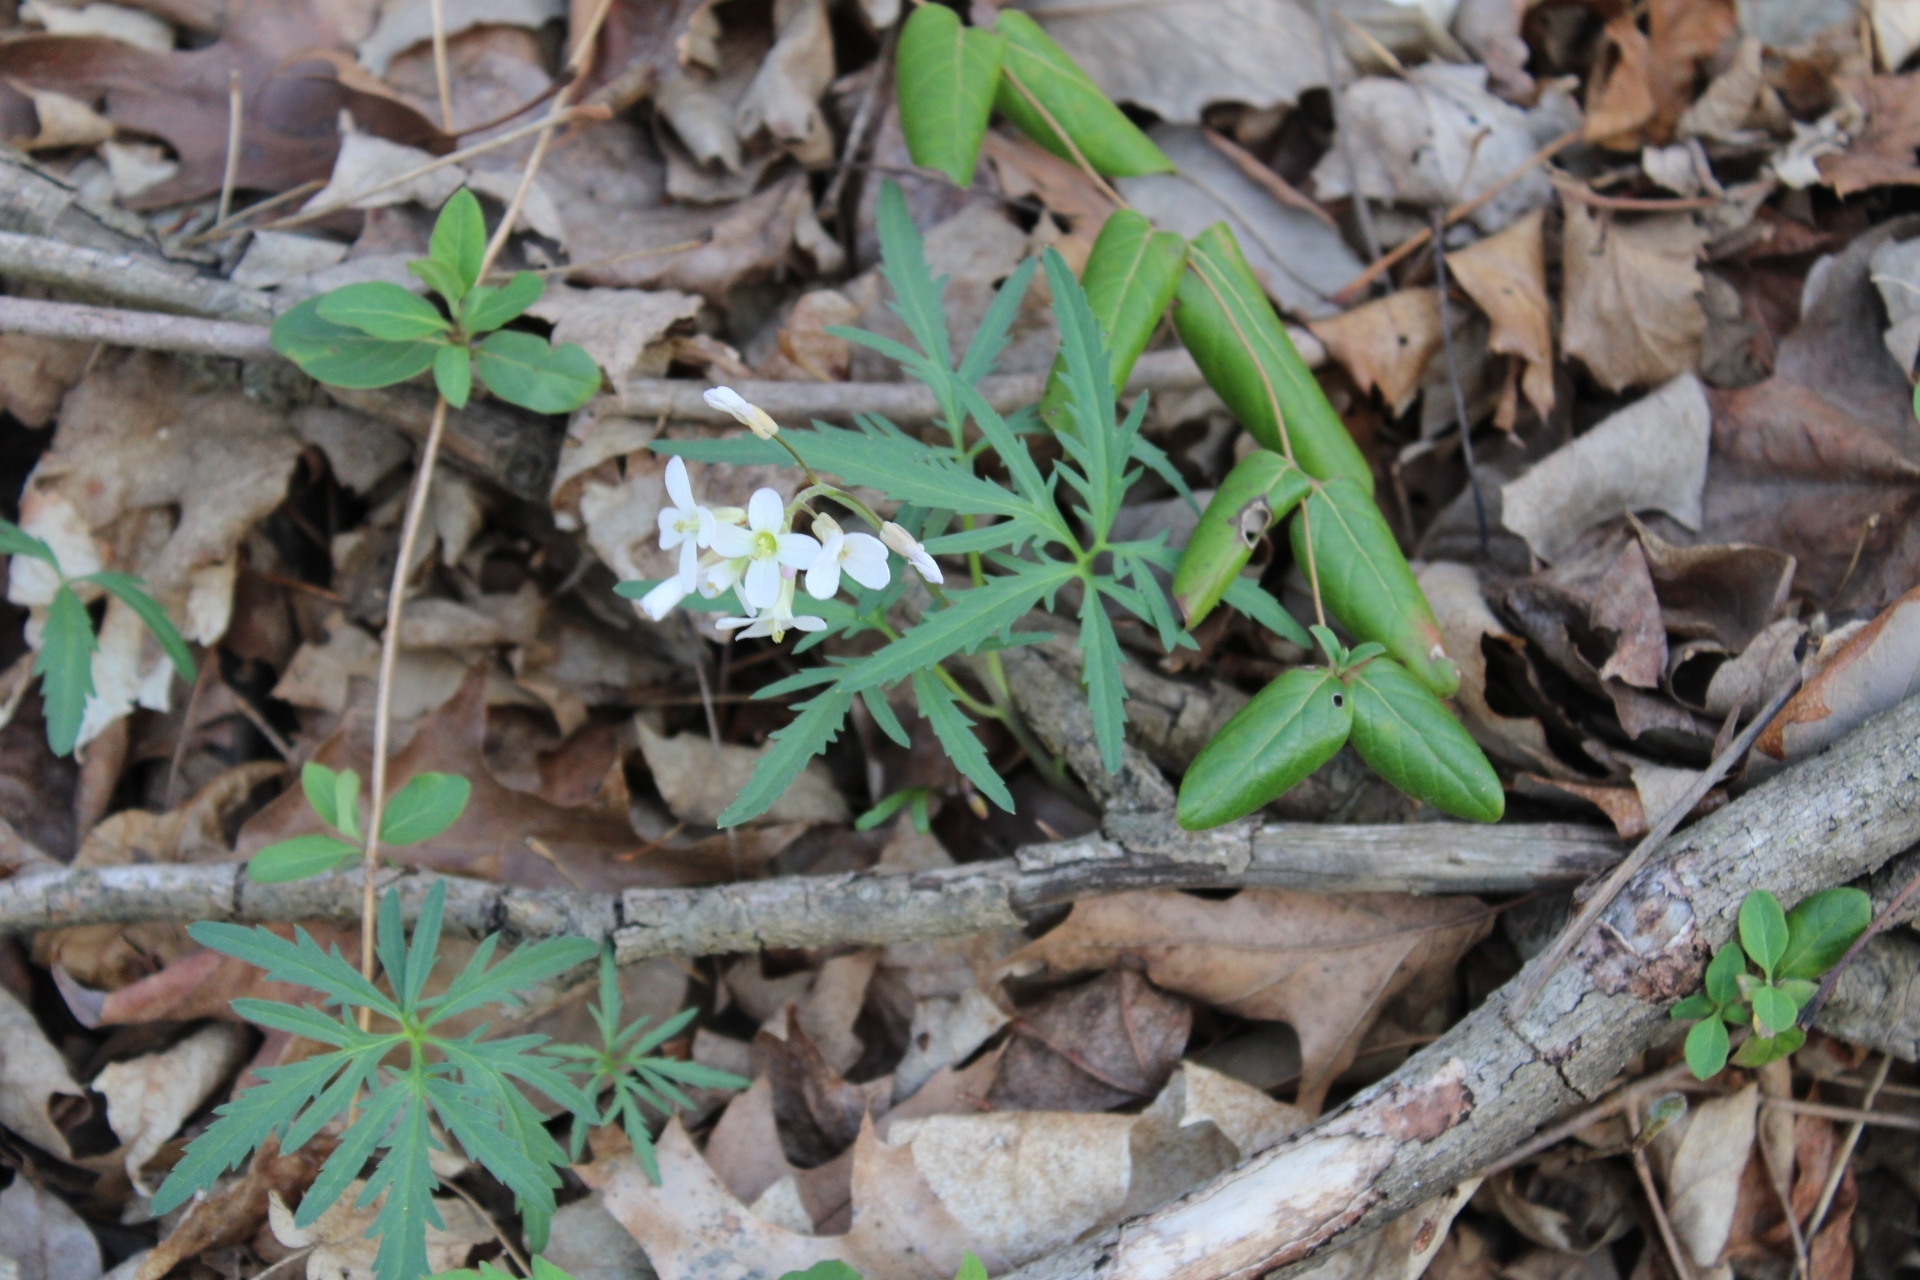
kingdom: Plantae
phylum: Tracheophyta
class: Magnoliopsida
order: Brassicales
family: Brassicaceae
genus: Cardamine
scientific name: Cardamine concatenata
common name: Cut-leaf toothcup
